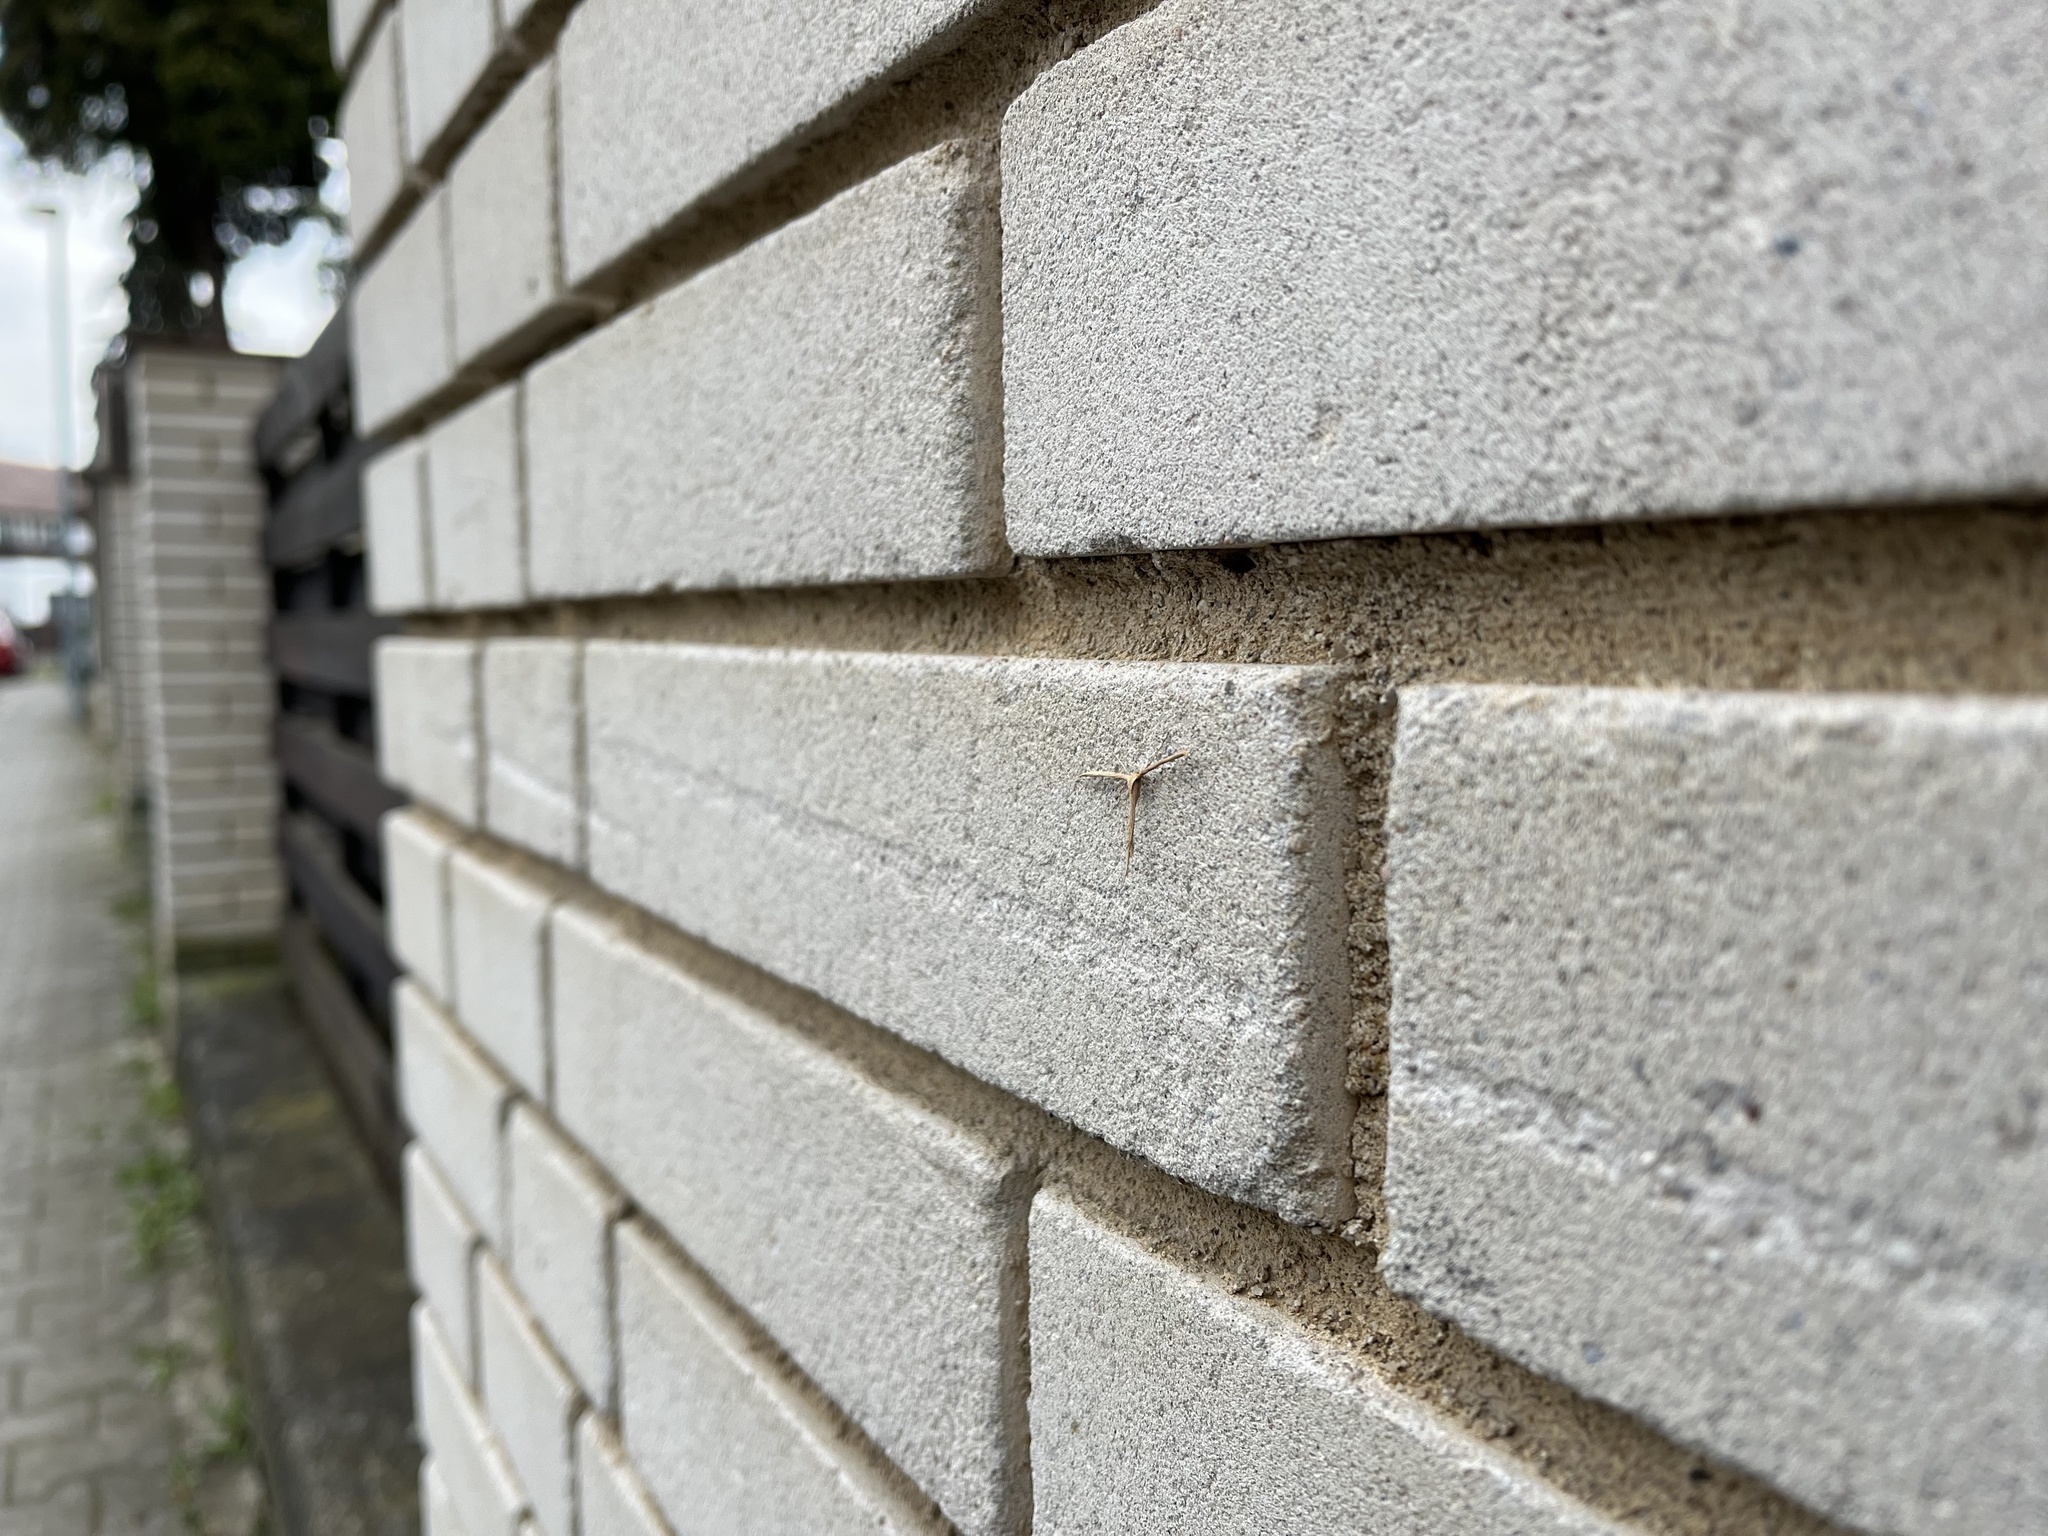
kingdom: Animalia
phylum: Arthropoda
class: Insecta
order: Lepidoptera
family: Pterophoridae
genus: Emmelina
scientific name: Emmelina monodactyla
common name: Common plume
